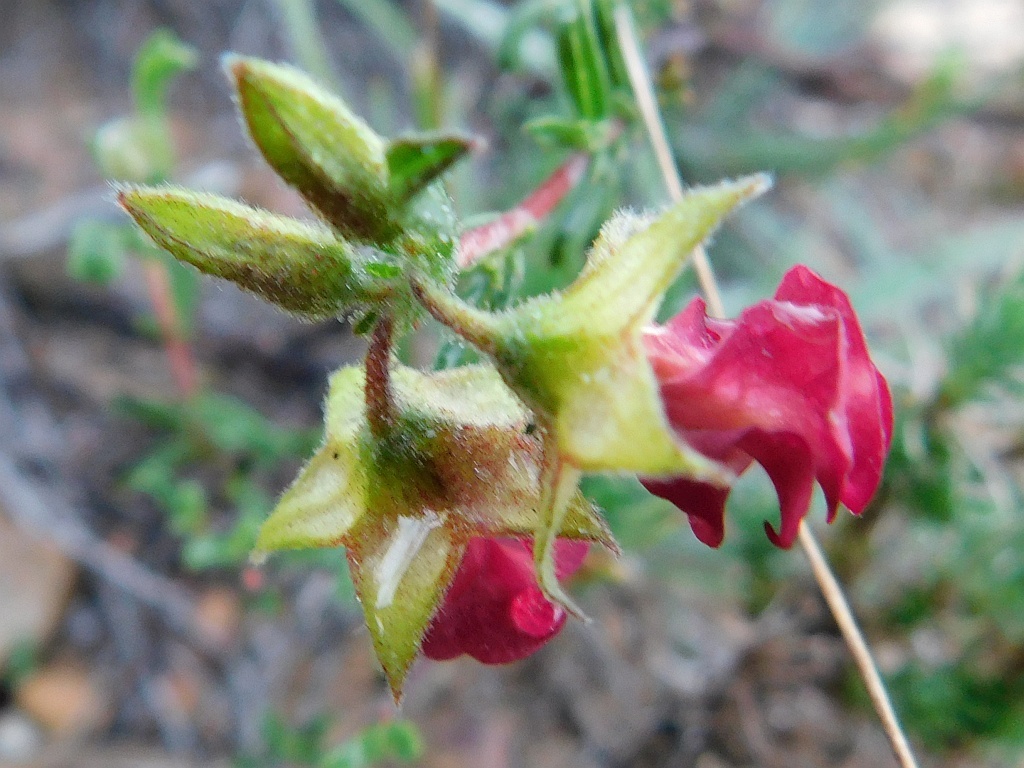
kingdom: Plantae
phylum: Tracheophyta
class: Magnoliopsida
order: Malvales
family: Malvaceae
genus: Hermannia
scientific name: Hermannia flammula
